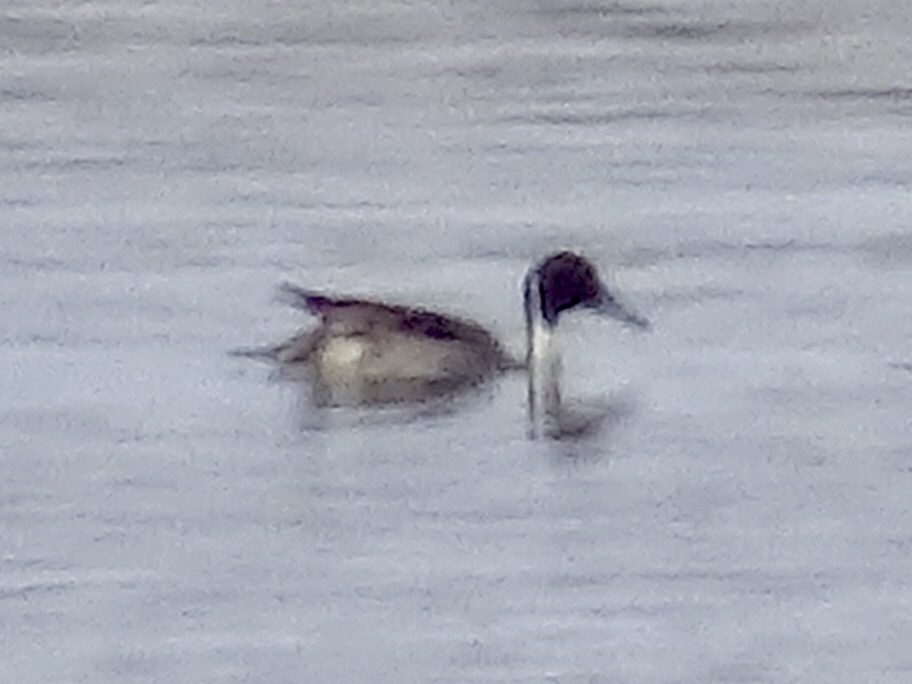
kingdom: Animalia
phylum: Chordata
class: Aves
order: Anseriformes
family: Anatidae
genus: Anas
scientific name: Anas acuta
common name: Northern pintail
